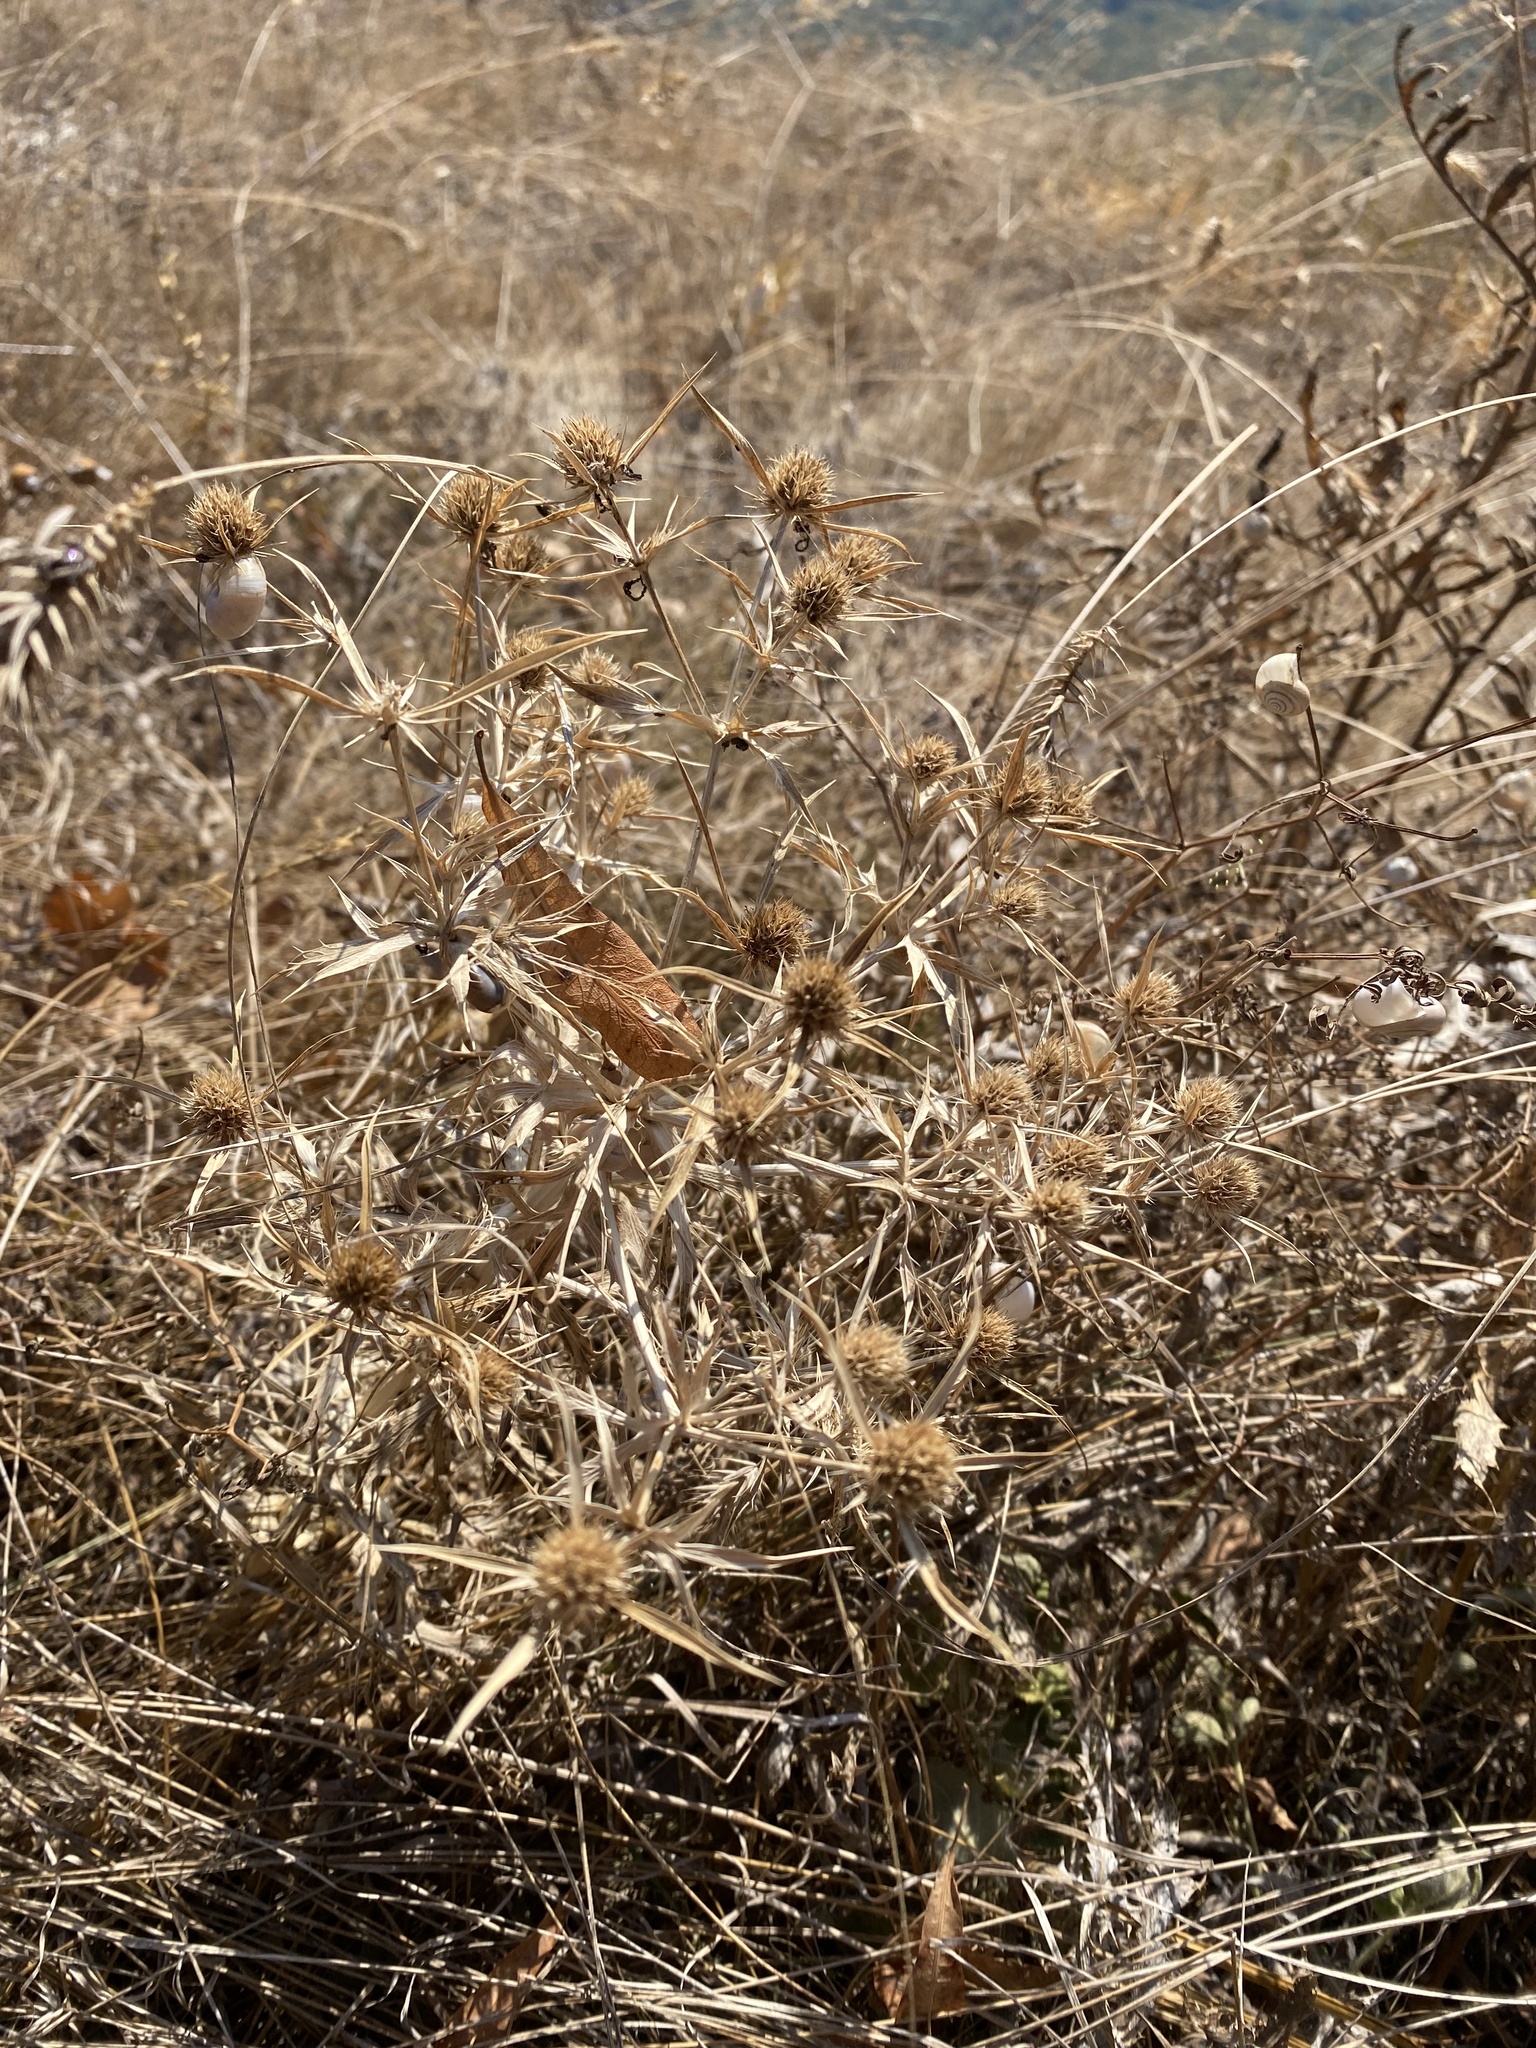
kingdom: Plantae
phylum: Tracheophyta
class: Magnoliopsida
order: Apiales
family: Apiaceae
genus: Eryngium
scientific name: Eryngium campestre
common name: Field eryngo
